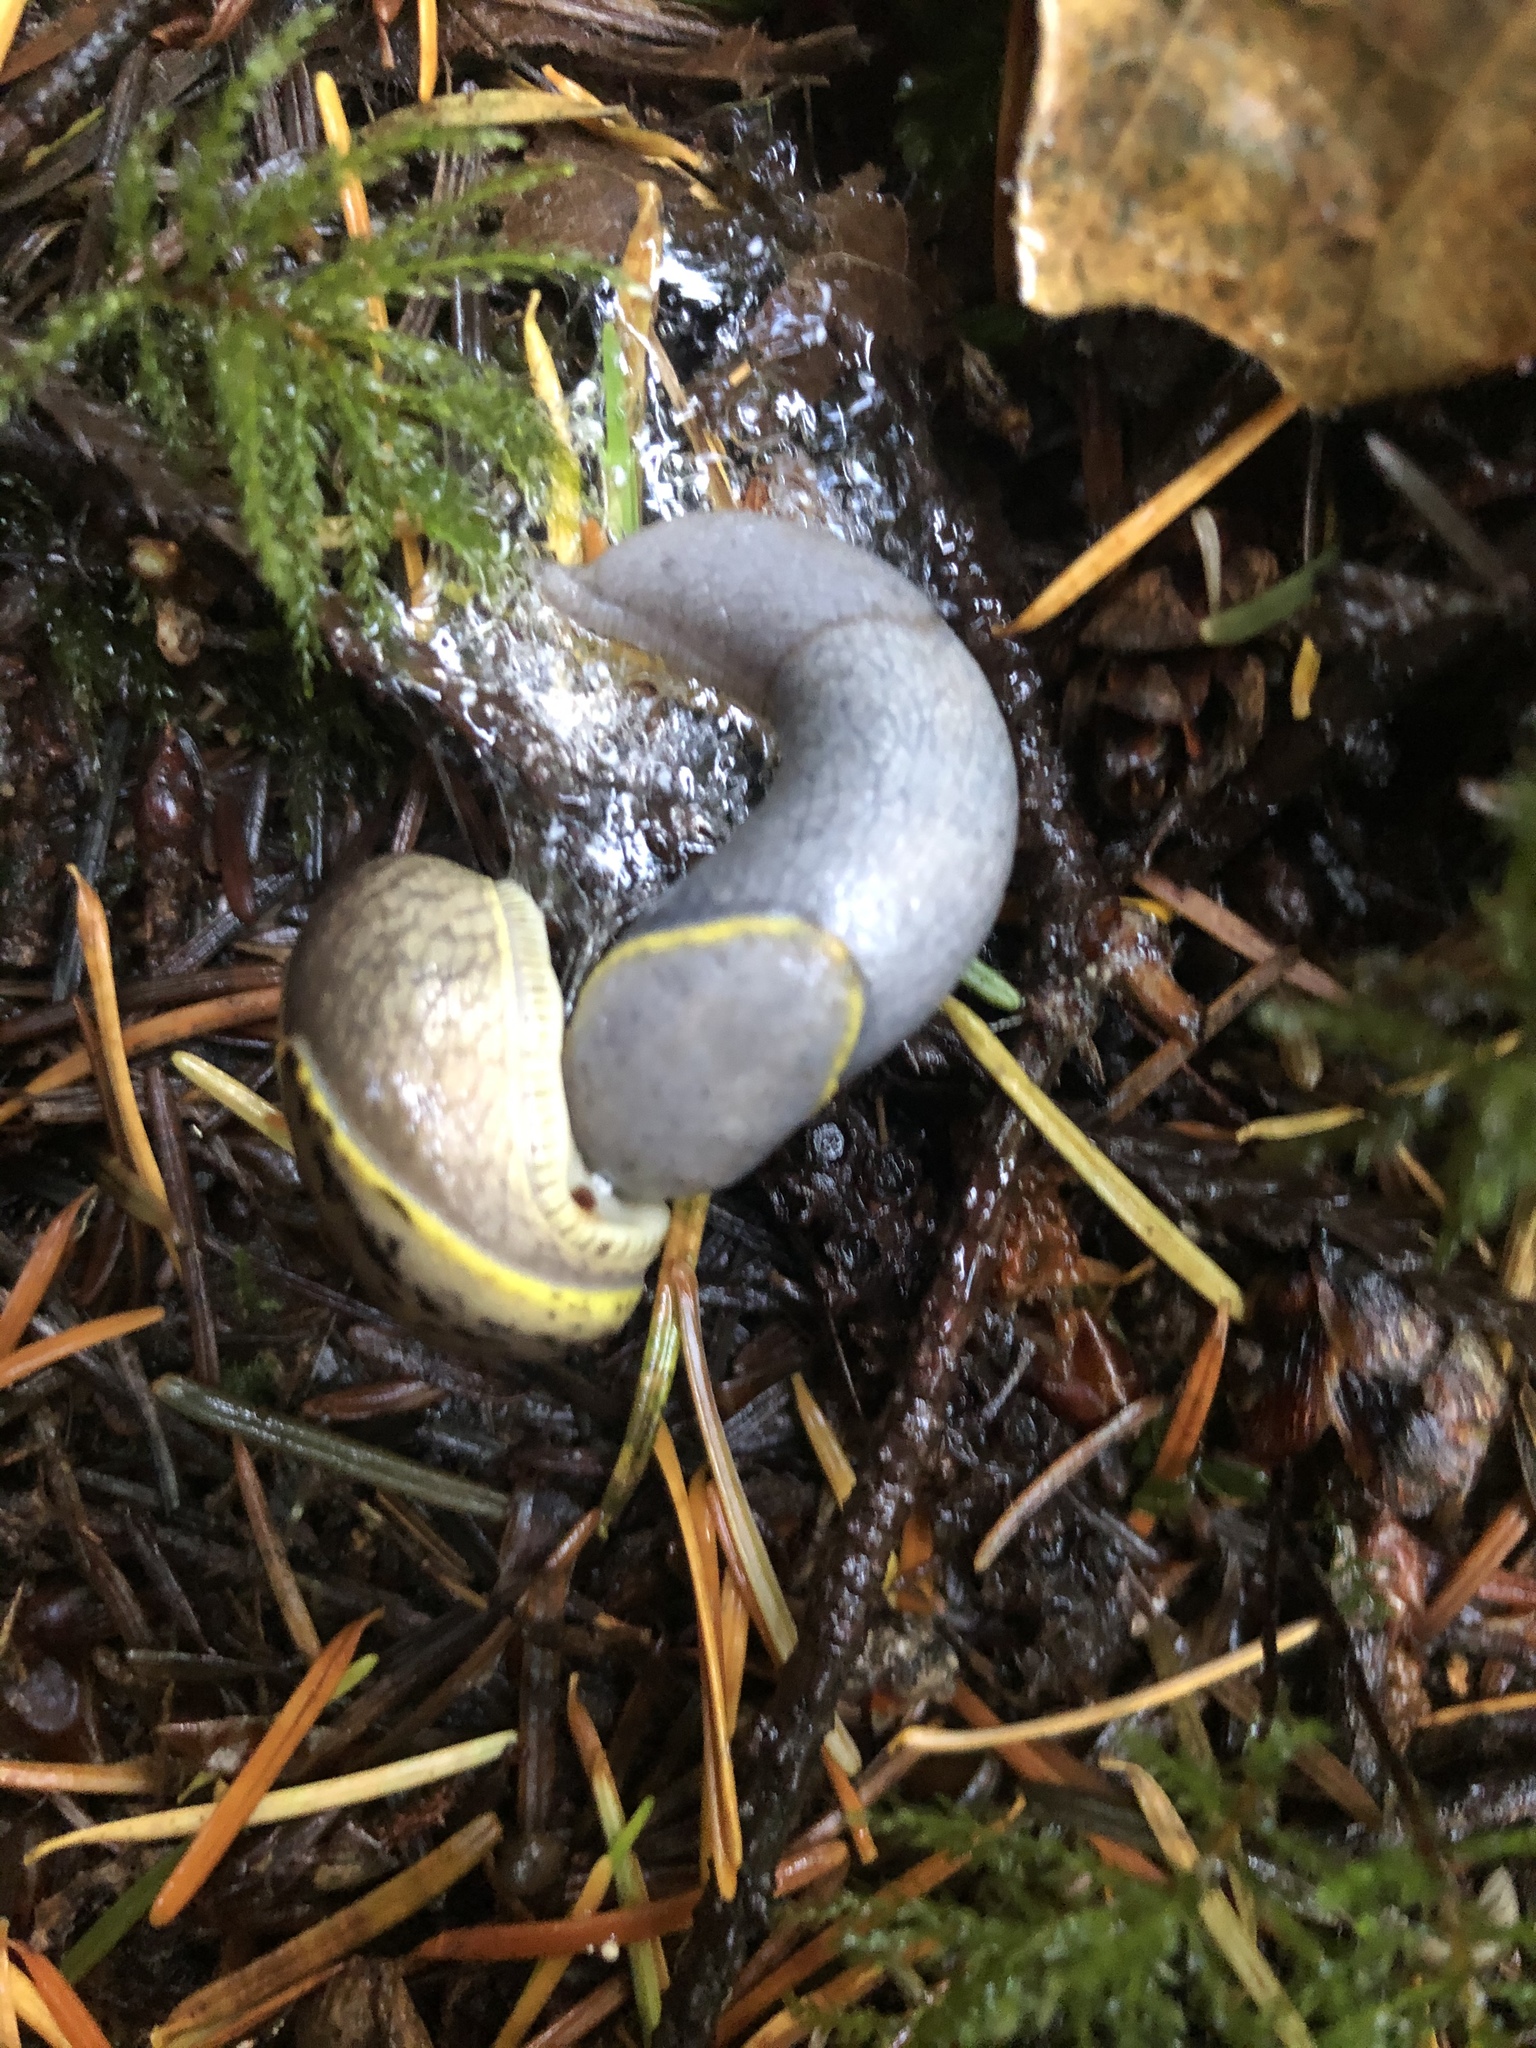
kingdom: Animalia
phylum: Mollusca
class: Gastropoda
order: Stylommatophora
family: Ariolimacidae
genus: Prophysaon
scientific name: Prophysaon foliolatum
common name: Yellow-bordered taildropper
